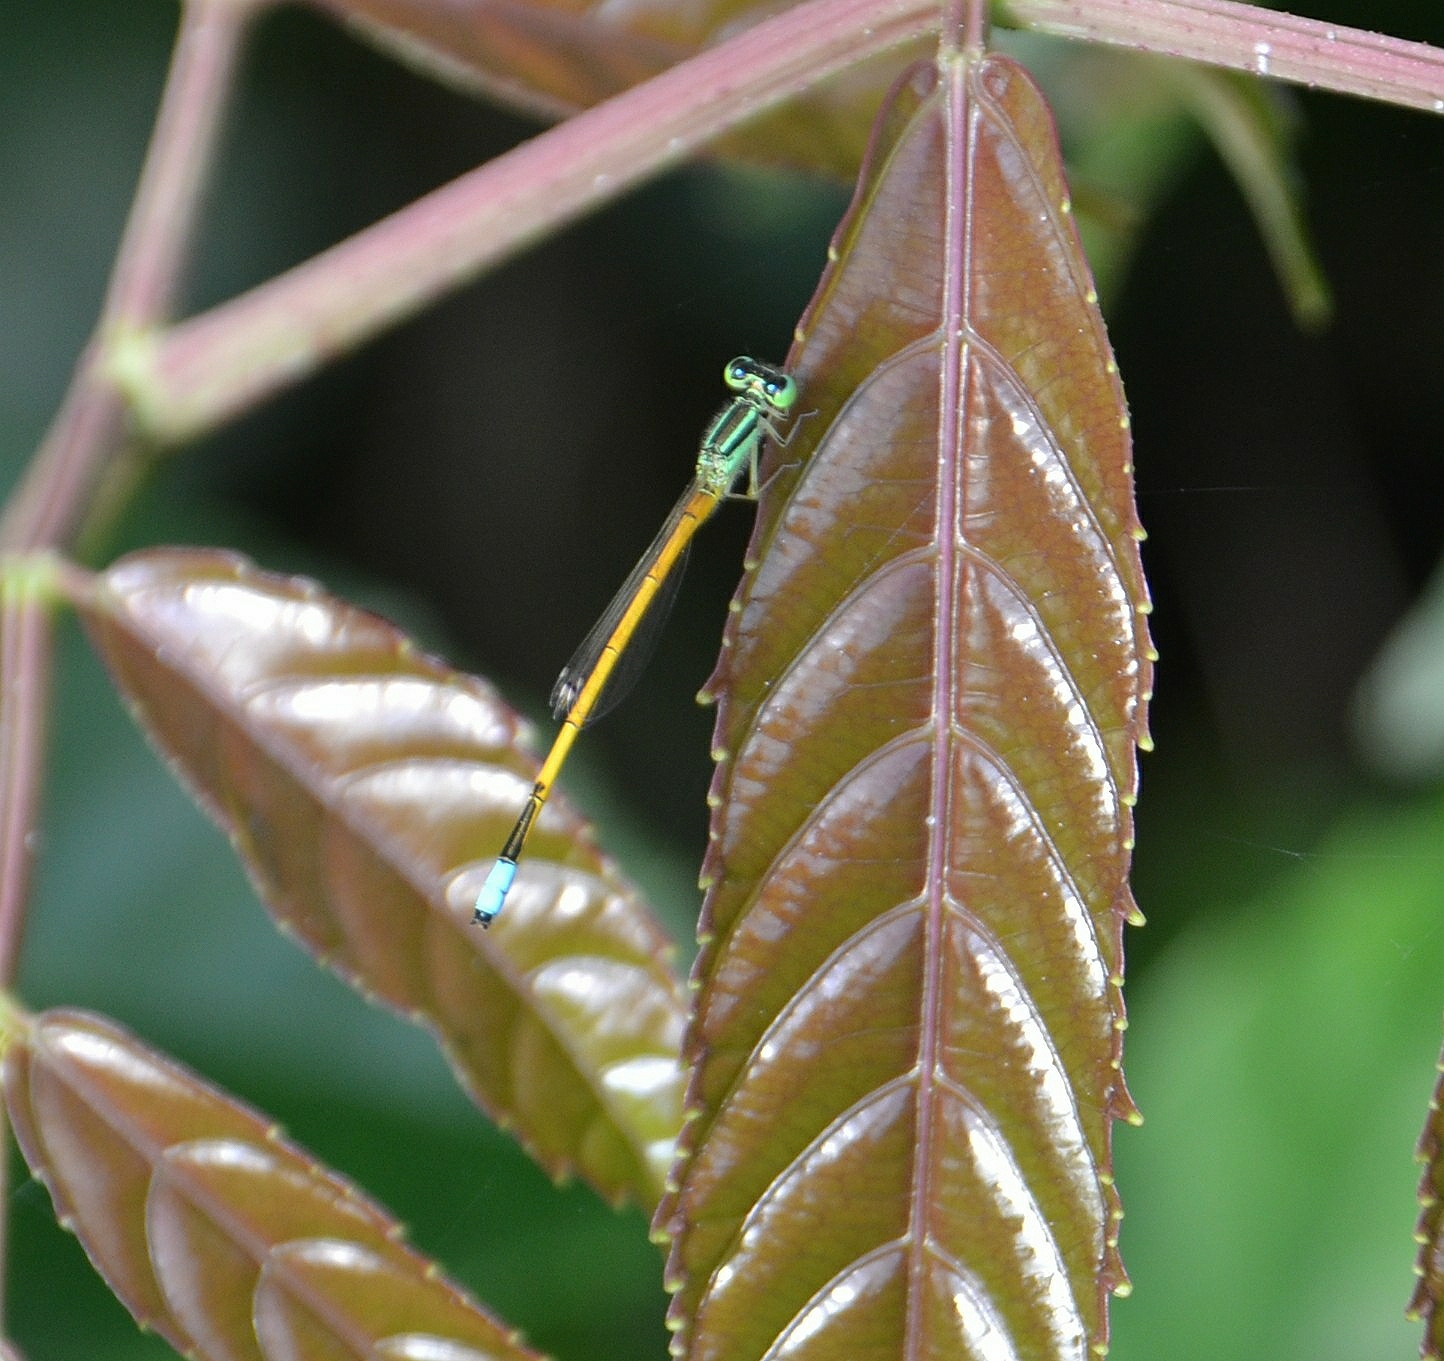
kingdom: Animalia
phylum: Arthropoda
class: Insecta
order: Odonata
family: Coenagrionidae
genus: Ischnura
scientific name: Ischnura rubilio
